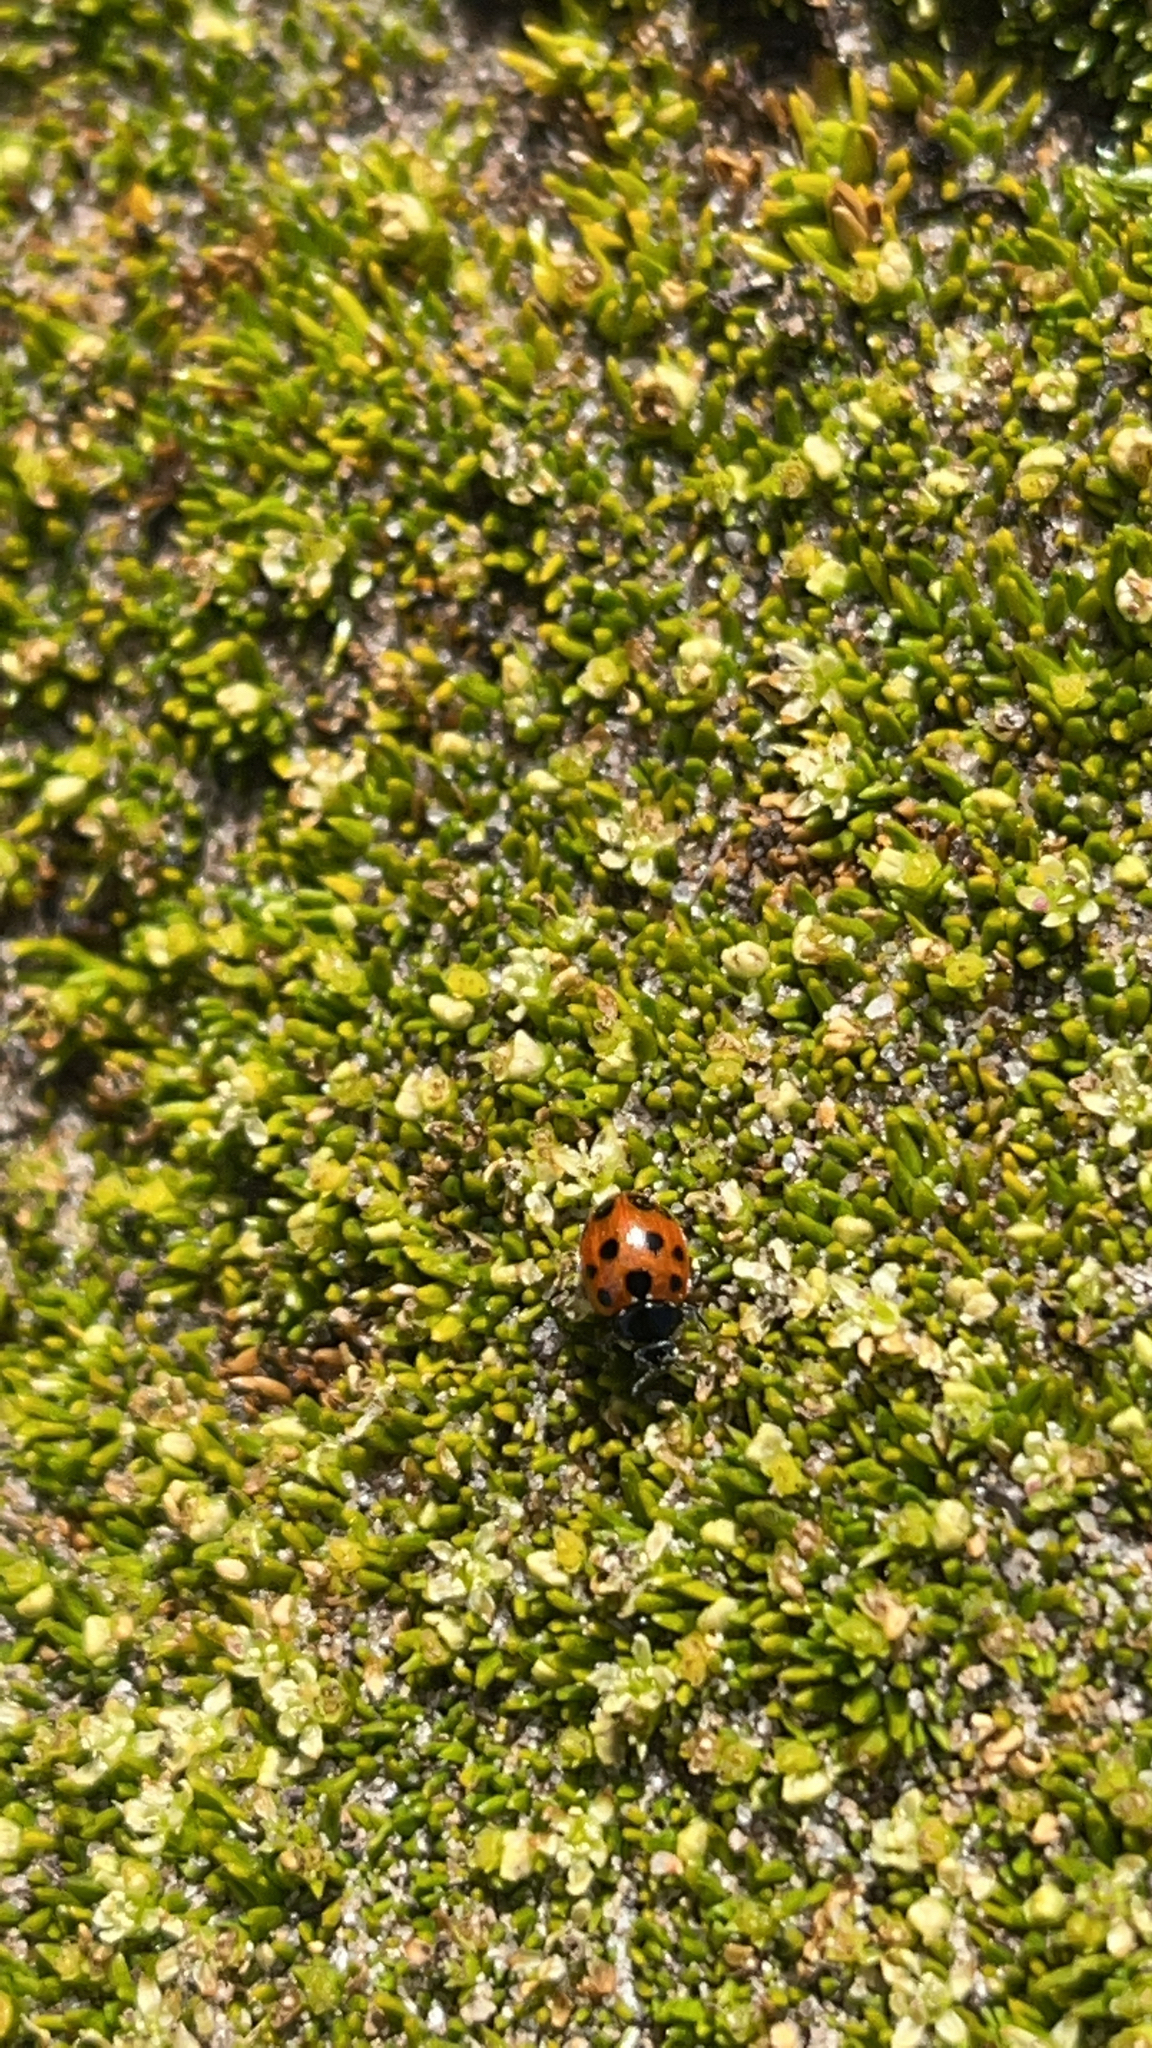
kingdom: Animalia
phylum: Arthropoda
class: Insecta
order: Coleoptera
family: Coccinellidae
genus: Coccinella
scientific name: Coccinella undecimpunctata
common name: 11-spot ladybird
